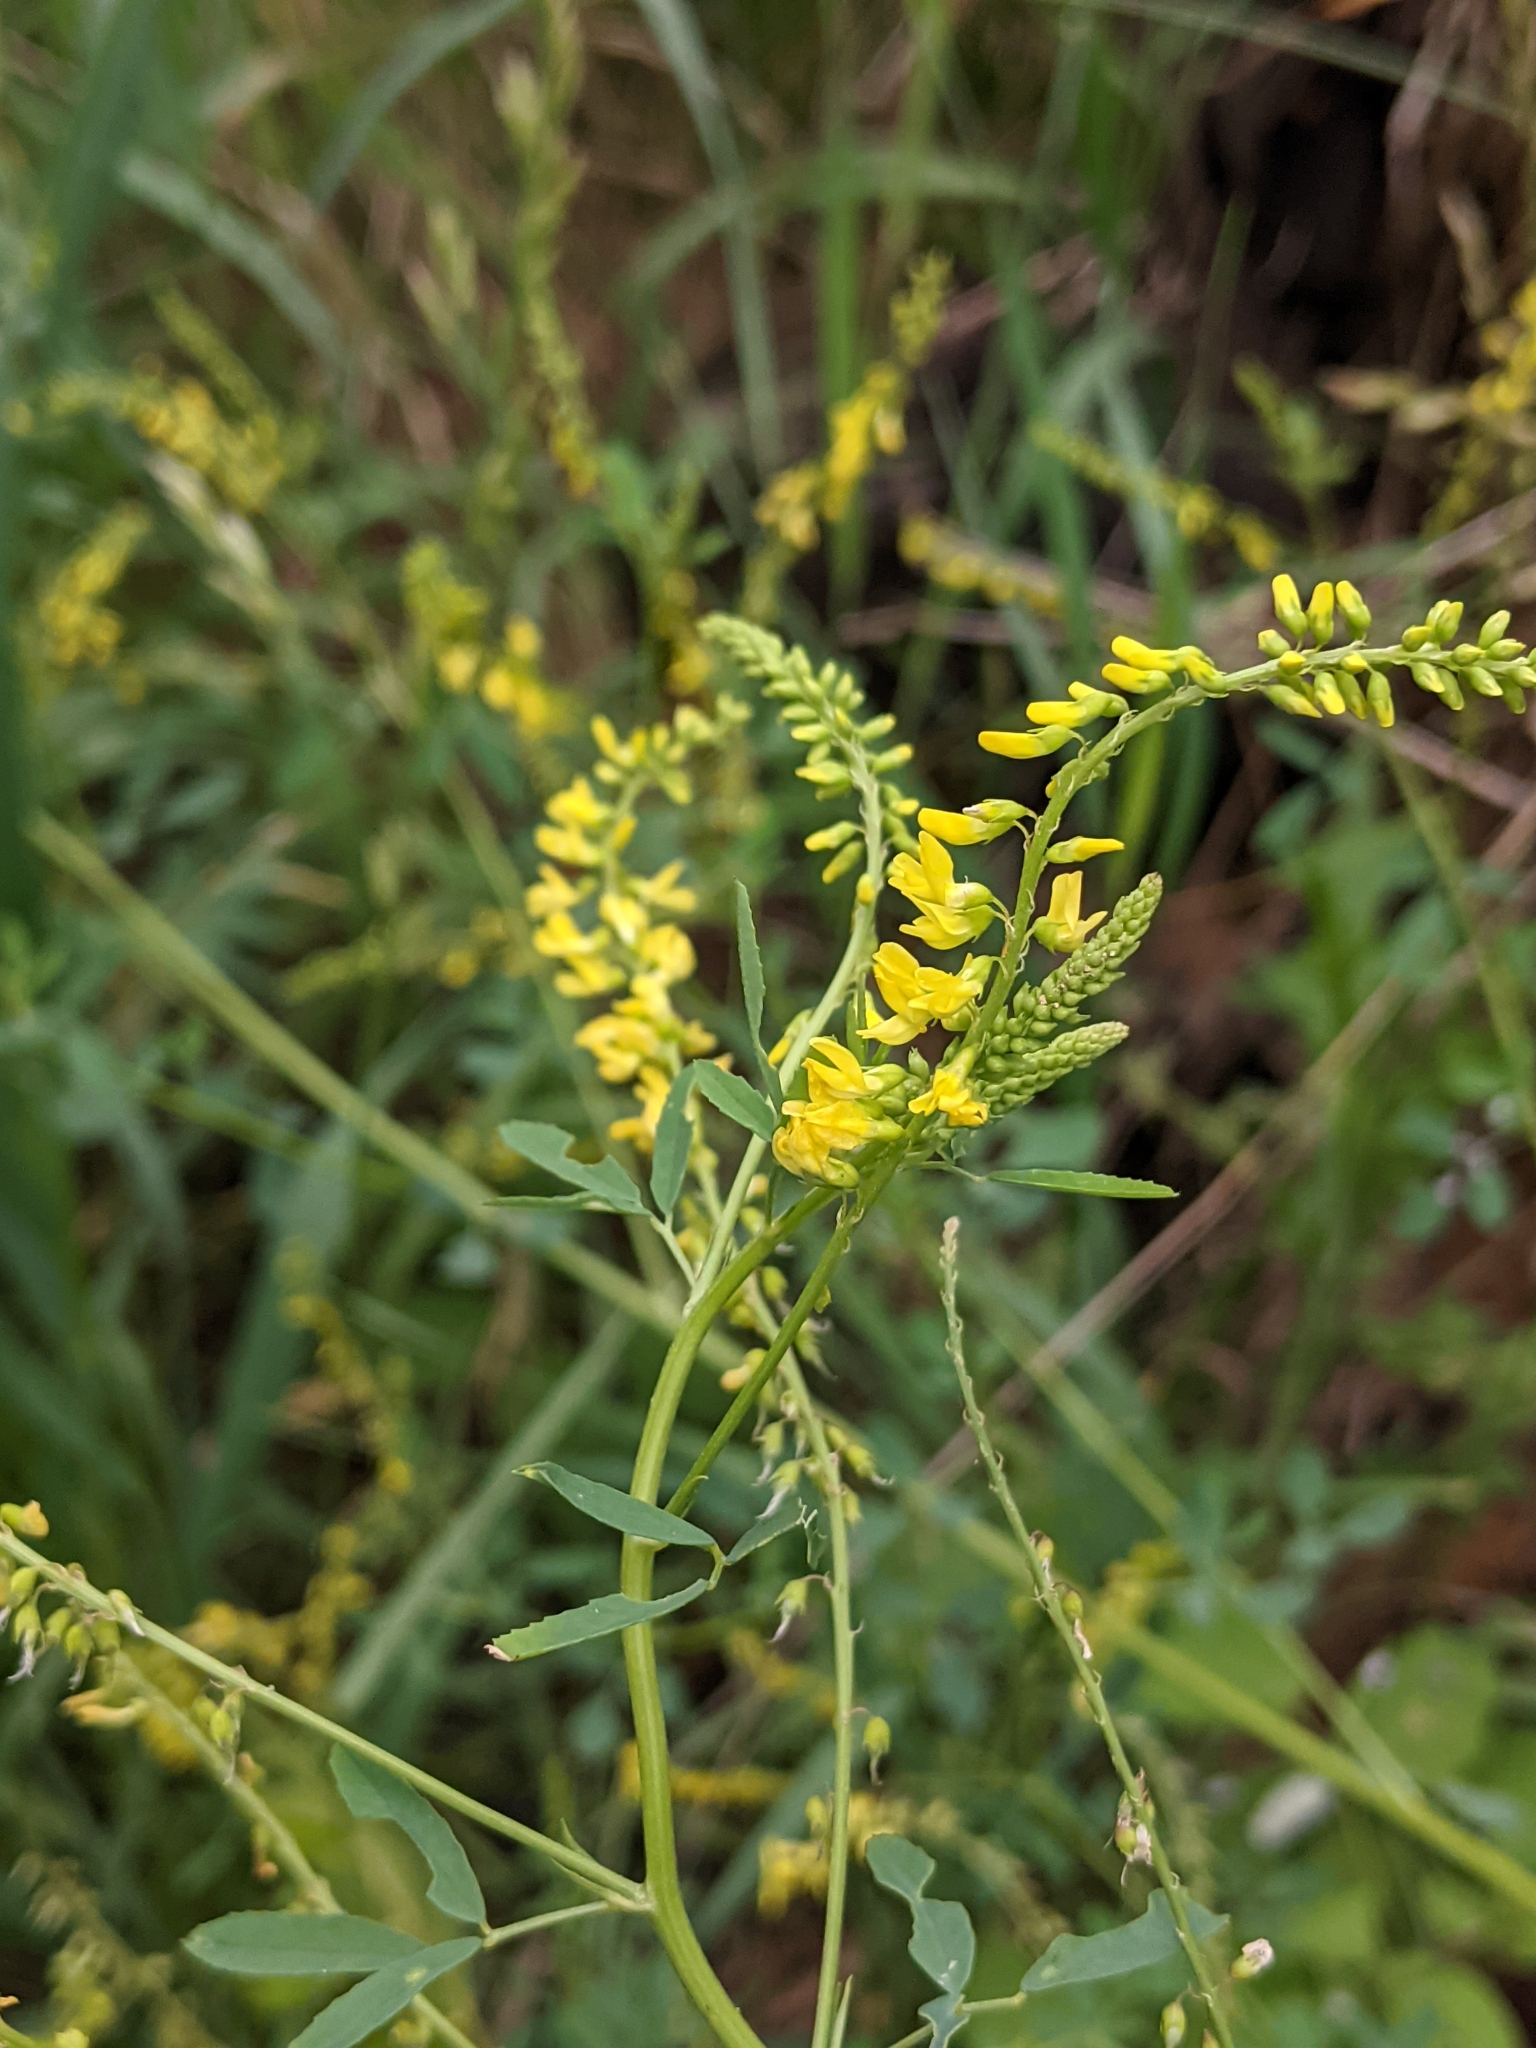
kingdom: Plantae
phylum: Tracheophyta
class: Magnoliopsida
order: Fabales
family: Fabaceae
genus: Melilotus
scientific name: Melilotus officinalis
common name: Sweetclover
